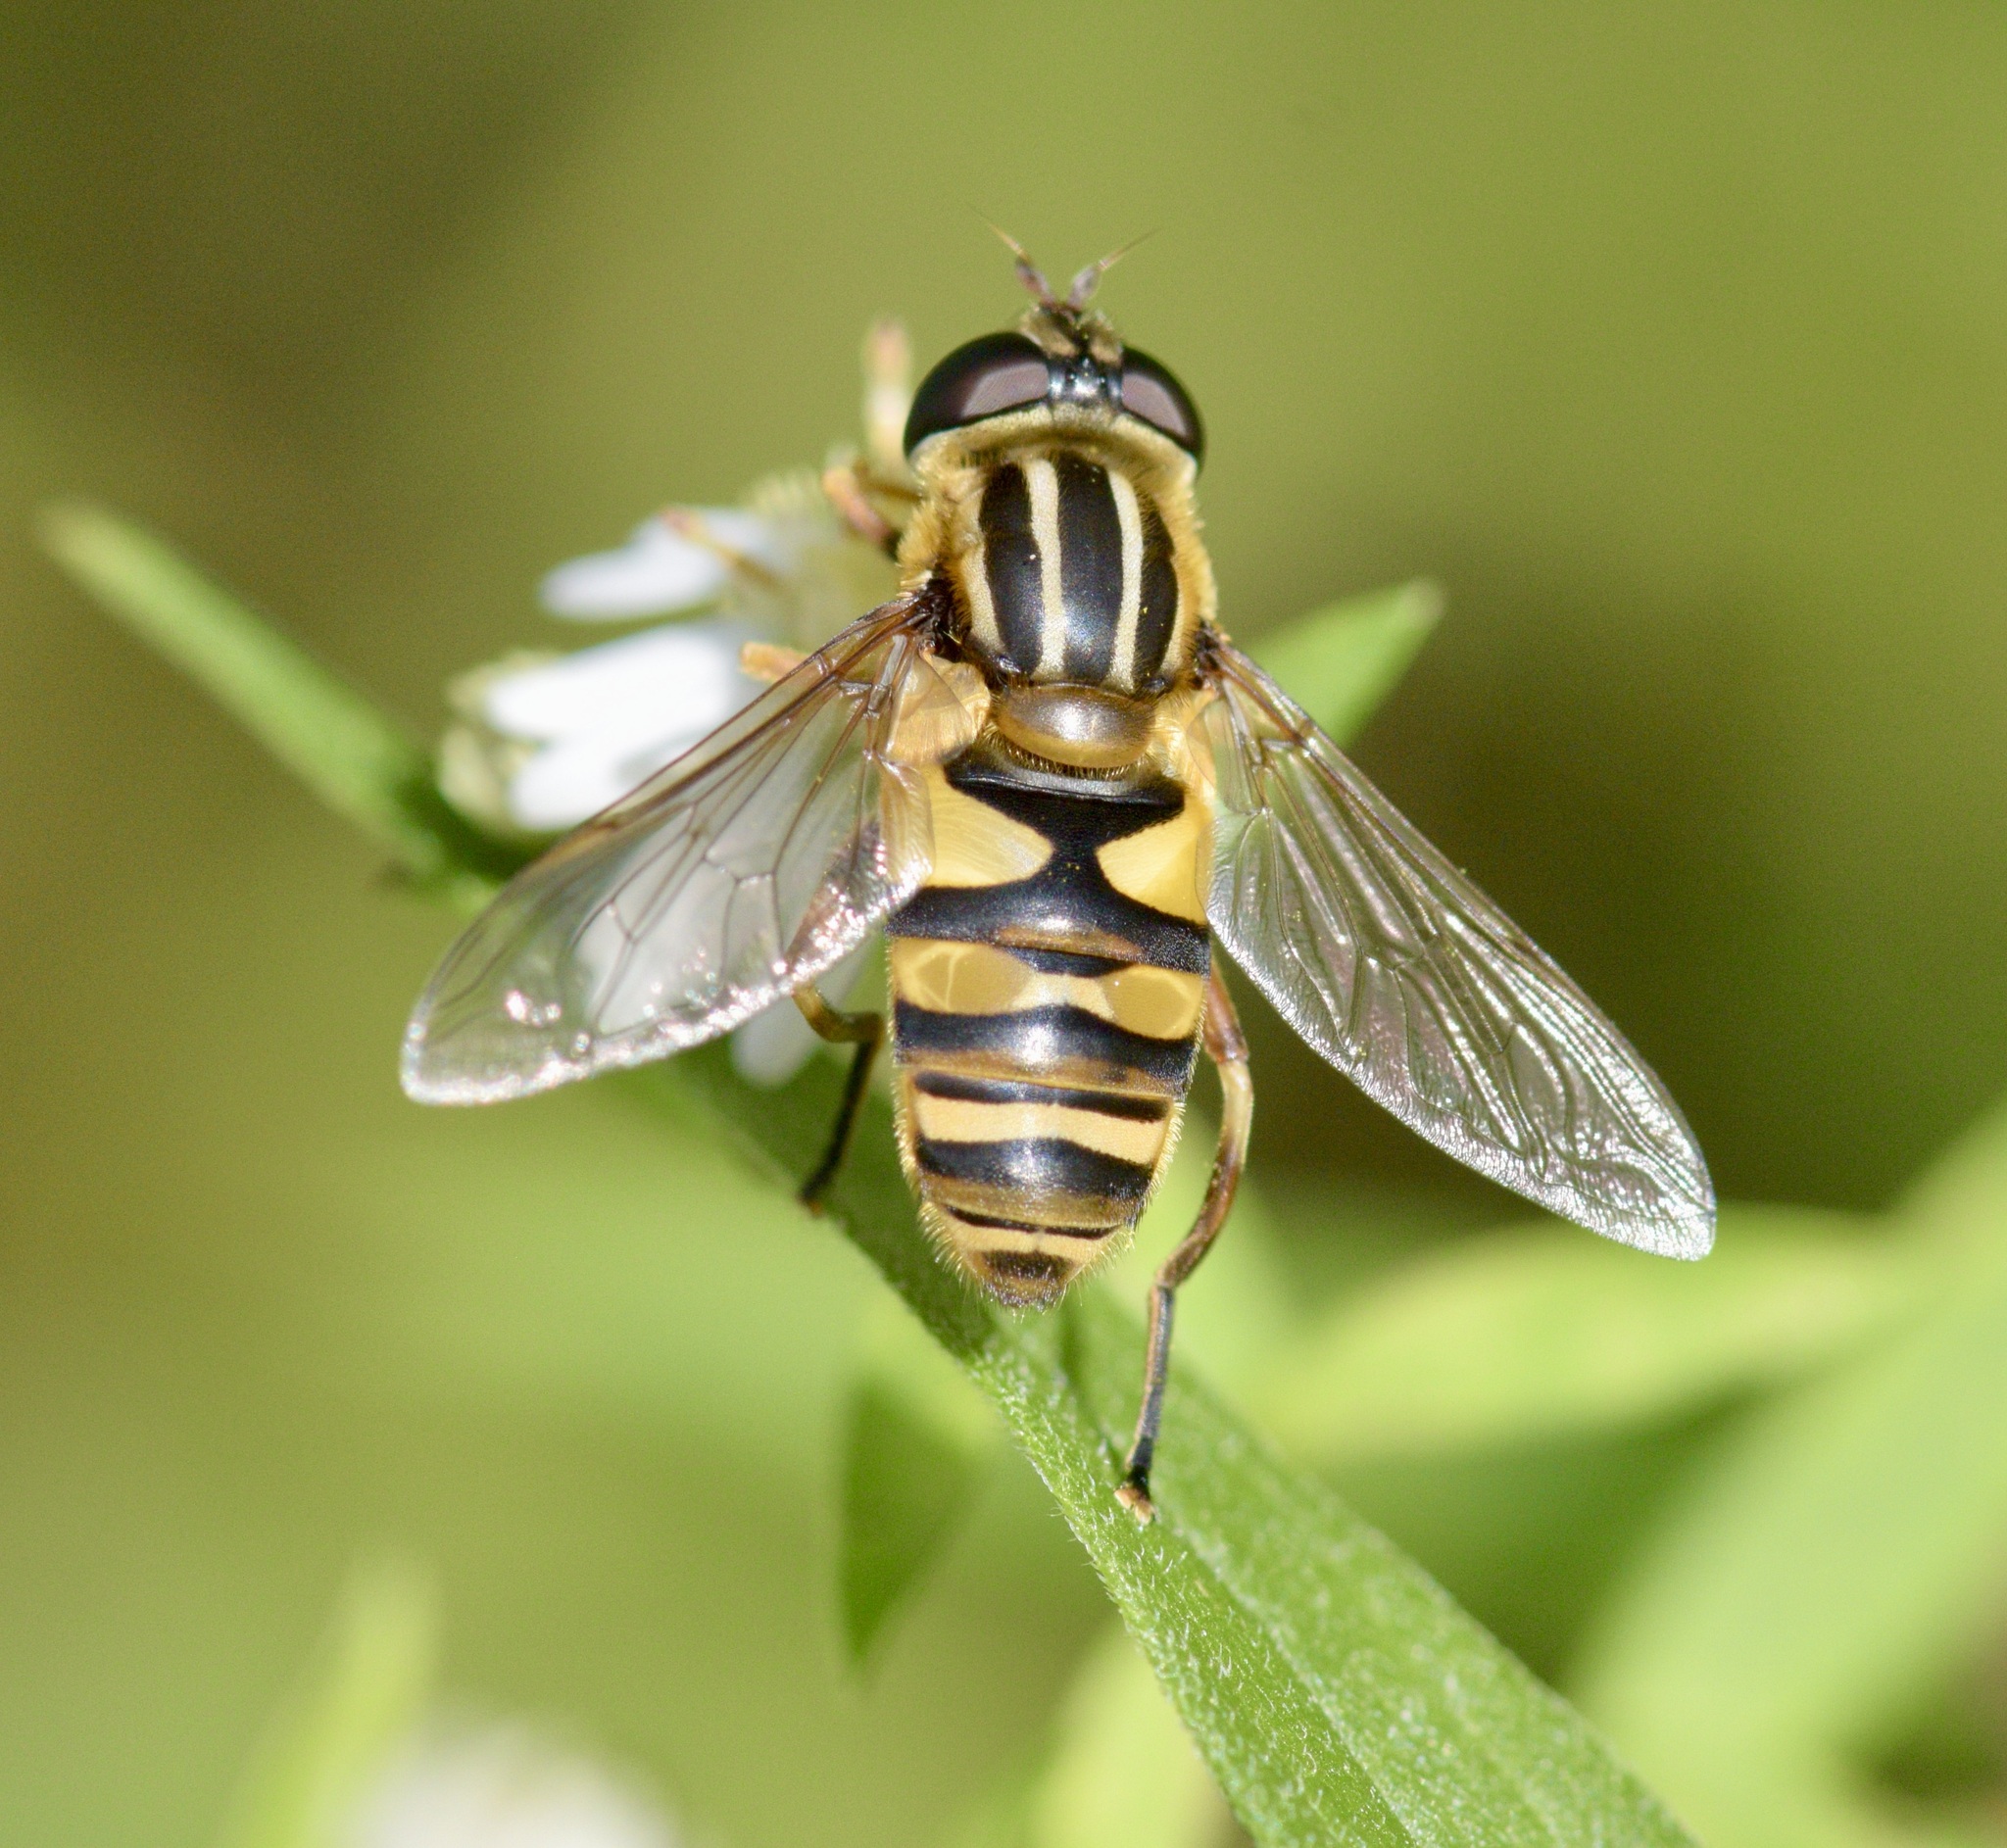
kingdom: Animalia
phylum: Arthropoda
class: Insecta
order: Diptera
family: Syrphidae
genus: Helophilus
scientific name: Helophilus fasciatus
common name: Narrow-headed marsh fly
